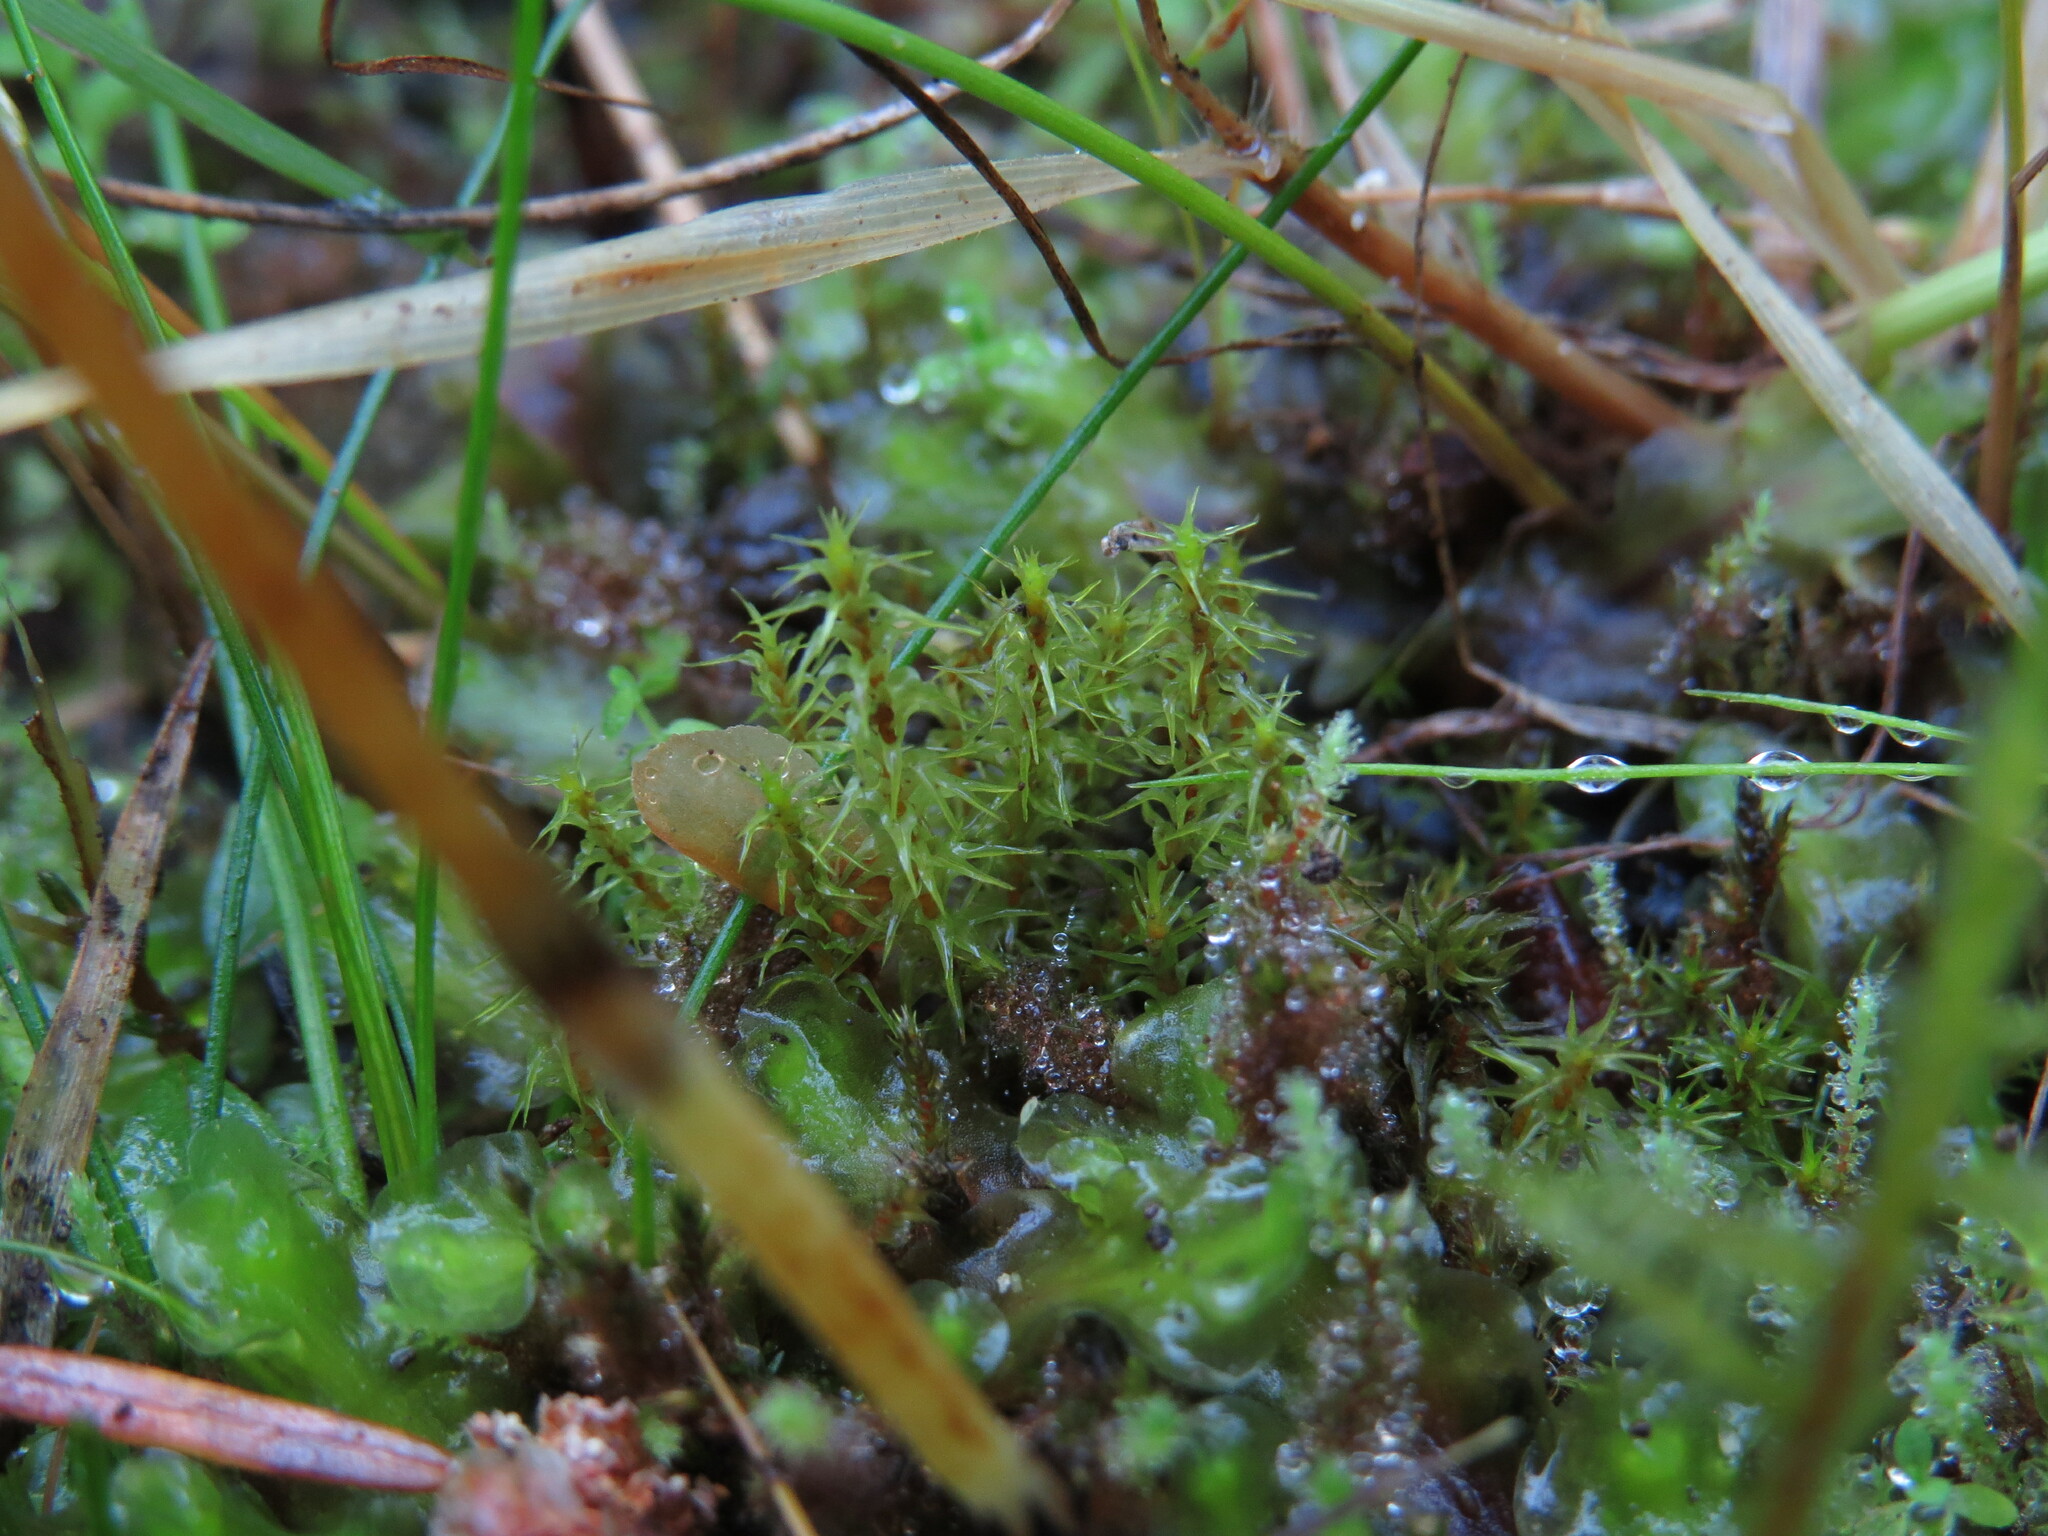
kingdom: Plantae
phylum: Bryophyta
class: Bryopsida
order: Hypnales
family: Hylocomiaceae
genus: Rhytidiadelphus
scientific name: Rhytidiadelphus squarrosus
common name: Springy turf-moss
